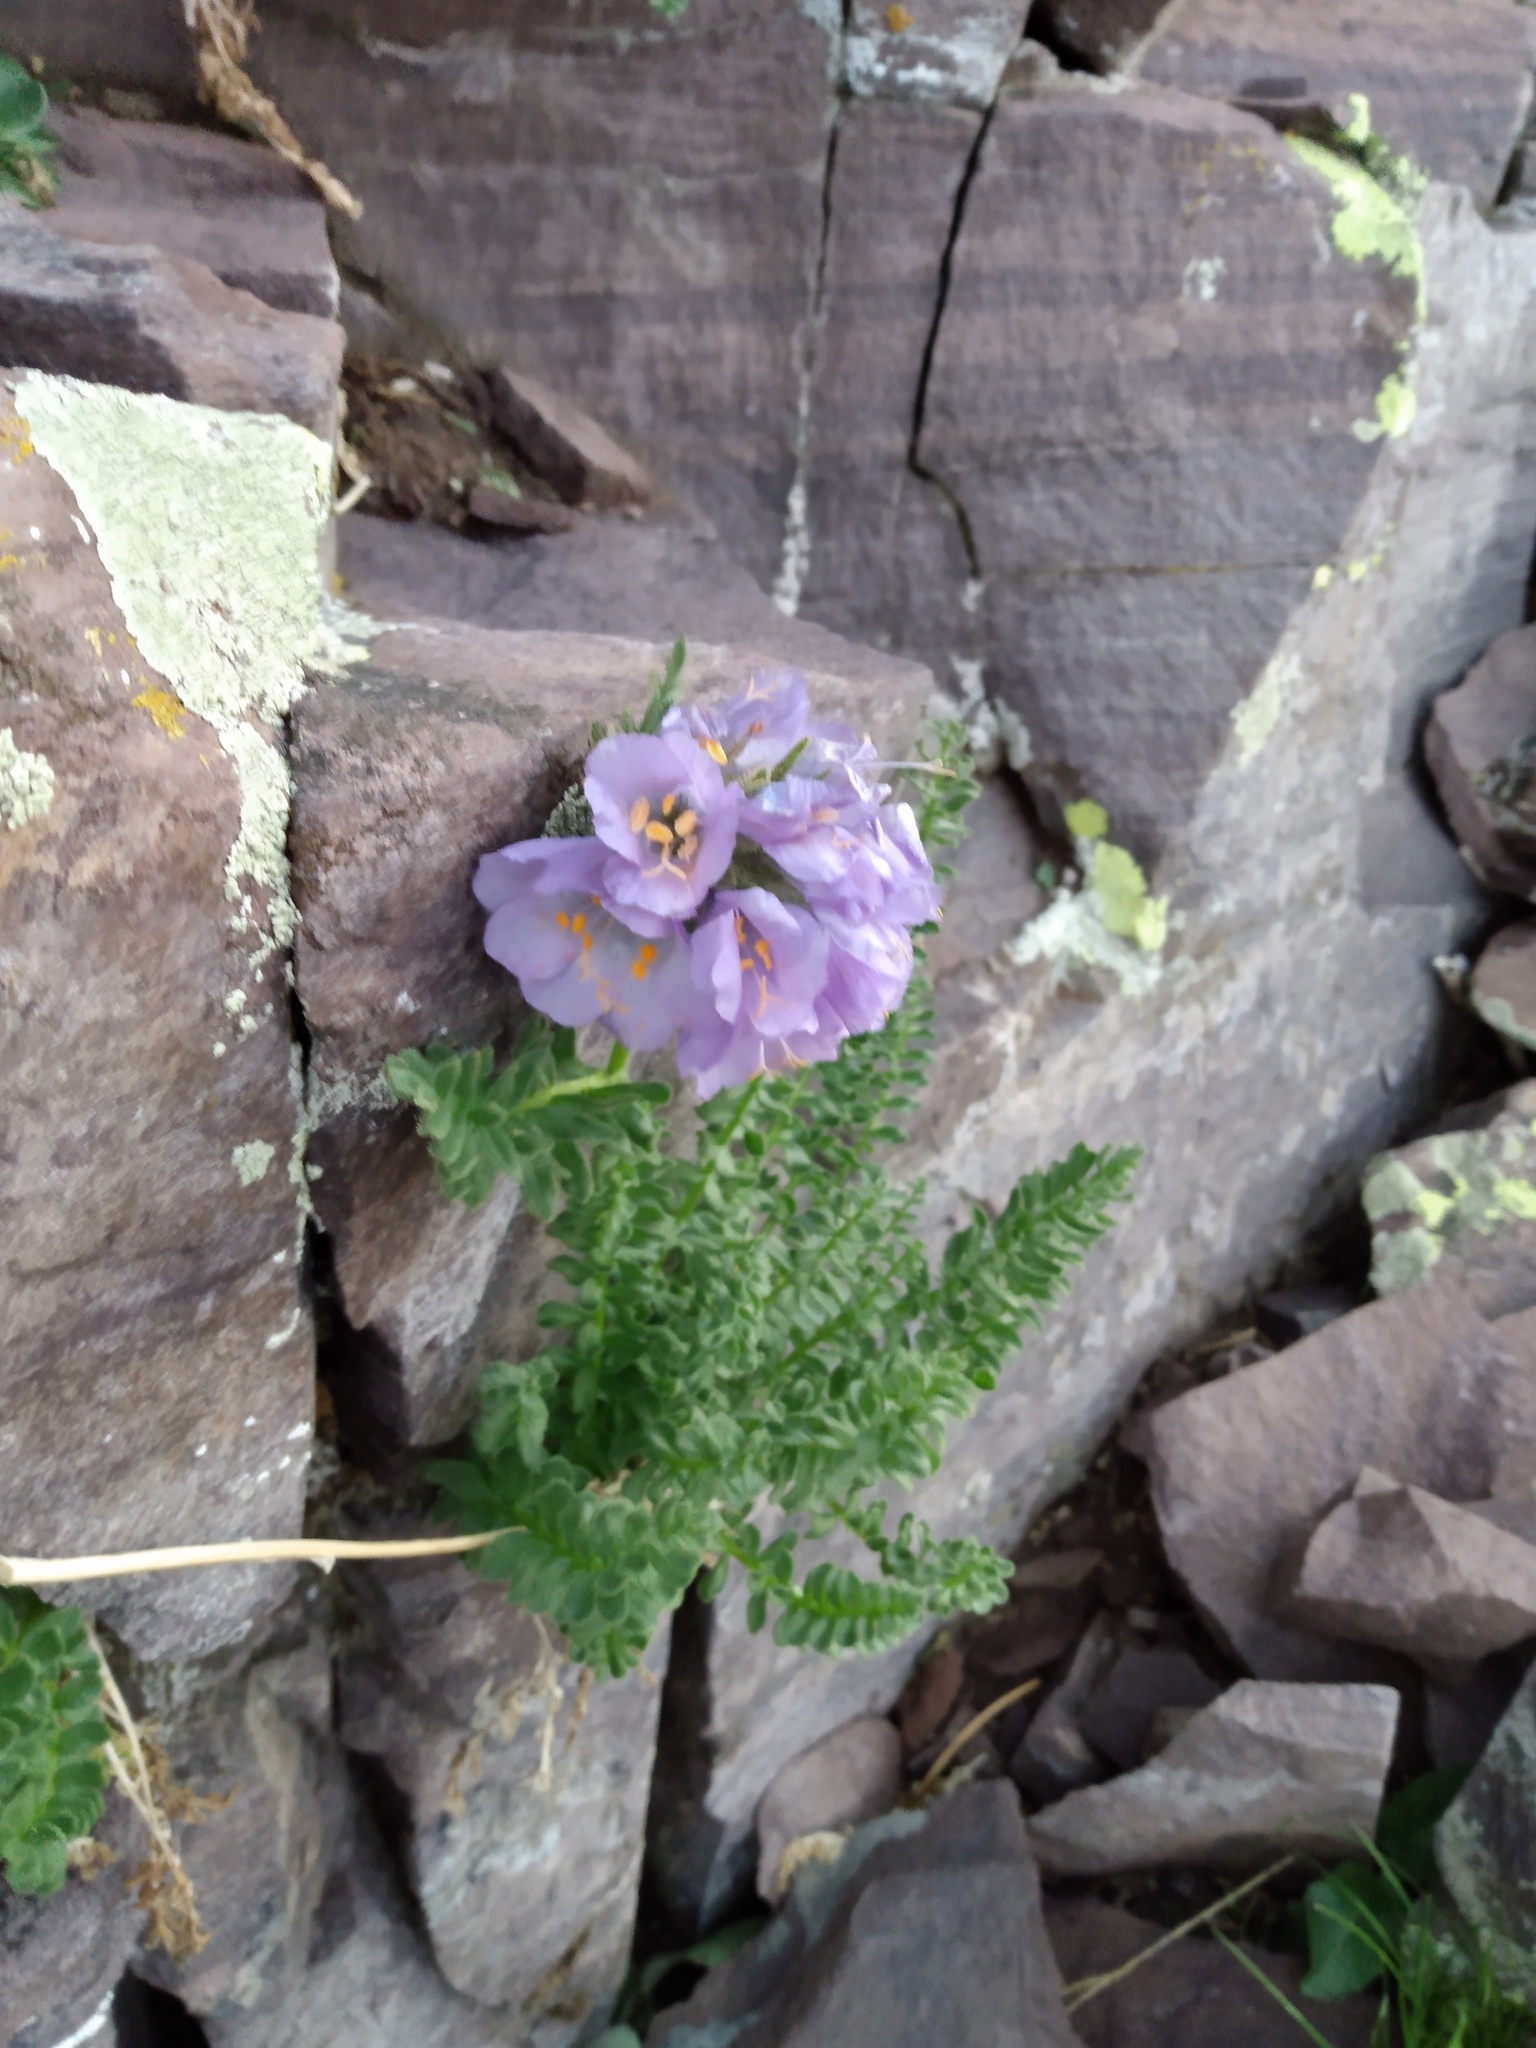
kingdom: Plantae
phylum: Tracheophyta
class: Magnoliopsida
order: Ericales
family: Polemoniaceae
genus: Polemonium
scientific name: Polemonium viscosum
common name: Skunk jacob's-ladder
